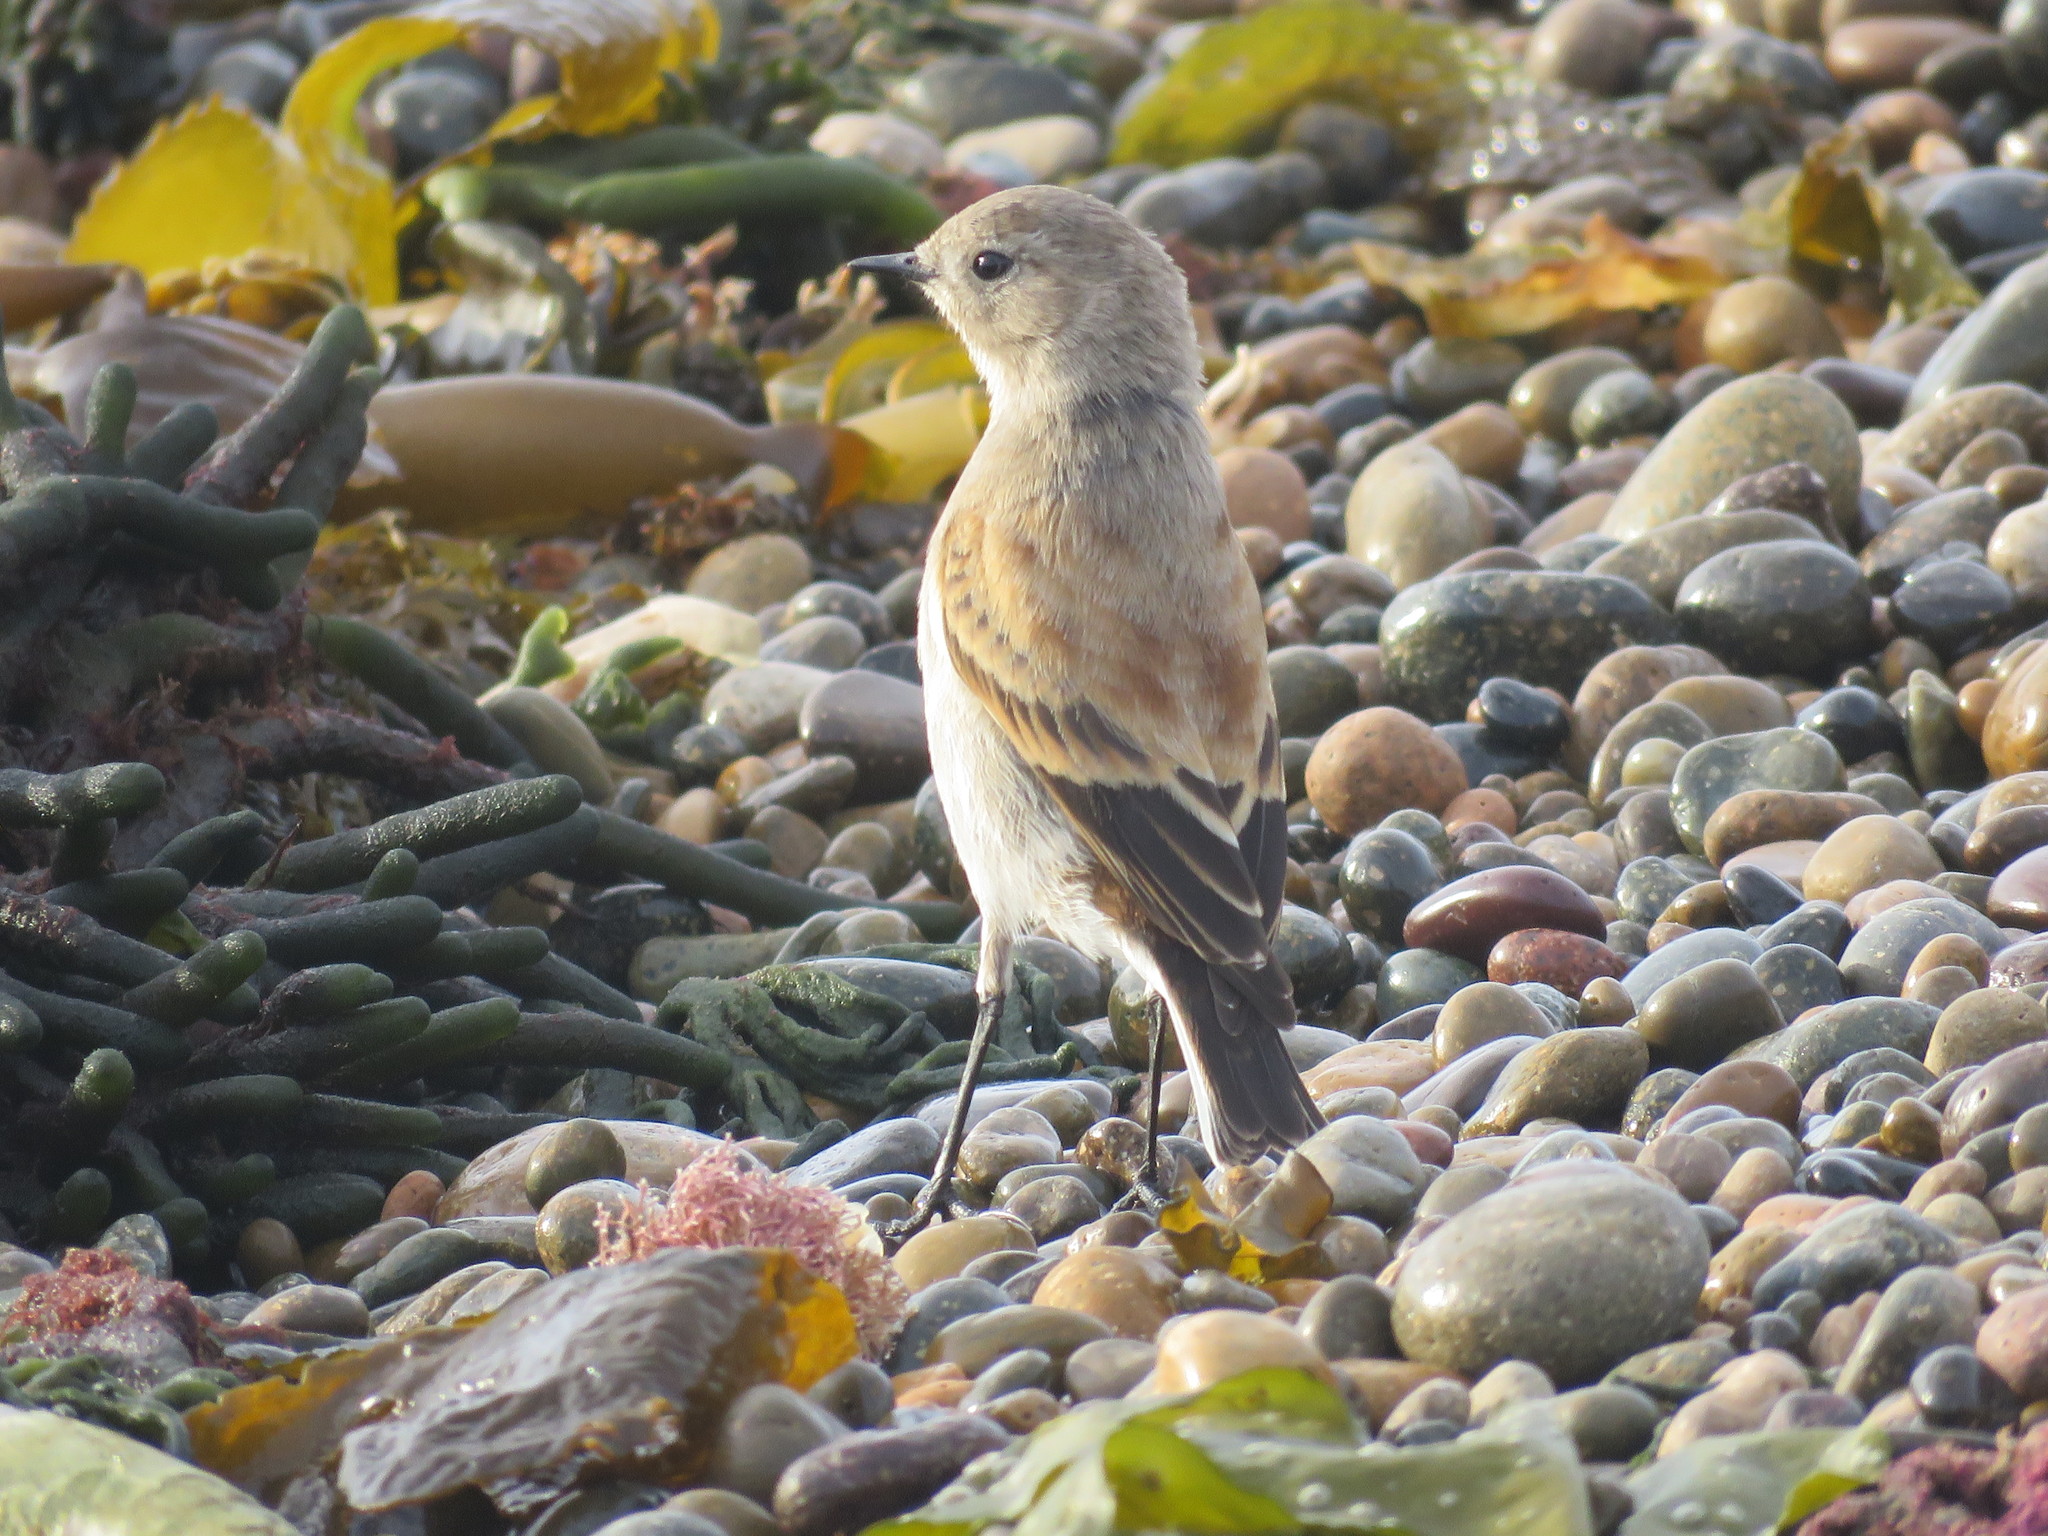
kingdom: Animalia
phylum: Chordata
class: Aves
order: Passeriformes
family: Tyrannidae
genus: Lessonia
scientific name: Lessonia rufa
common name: Austral negrito
